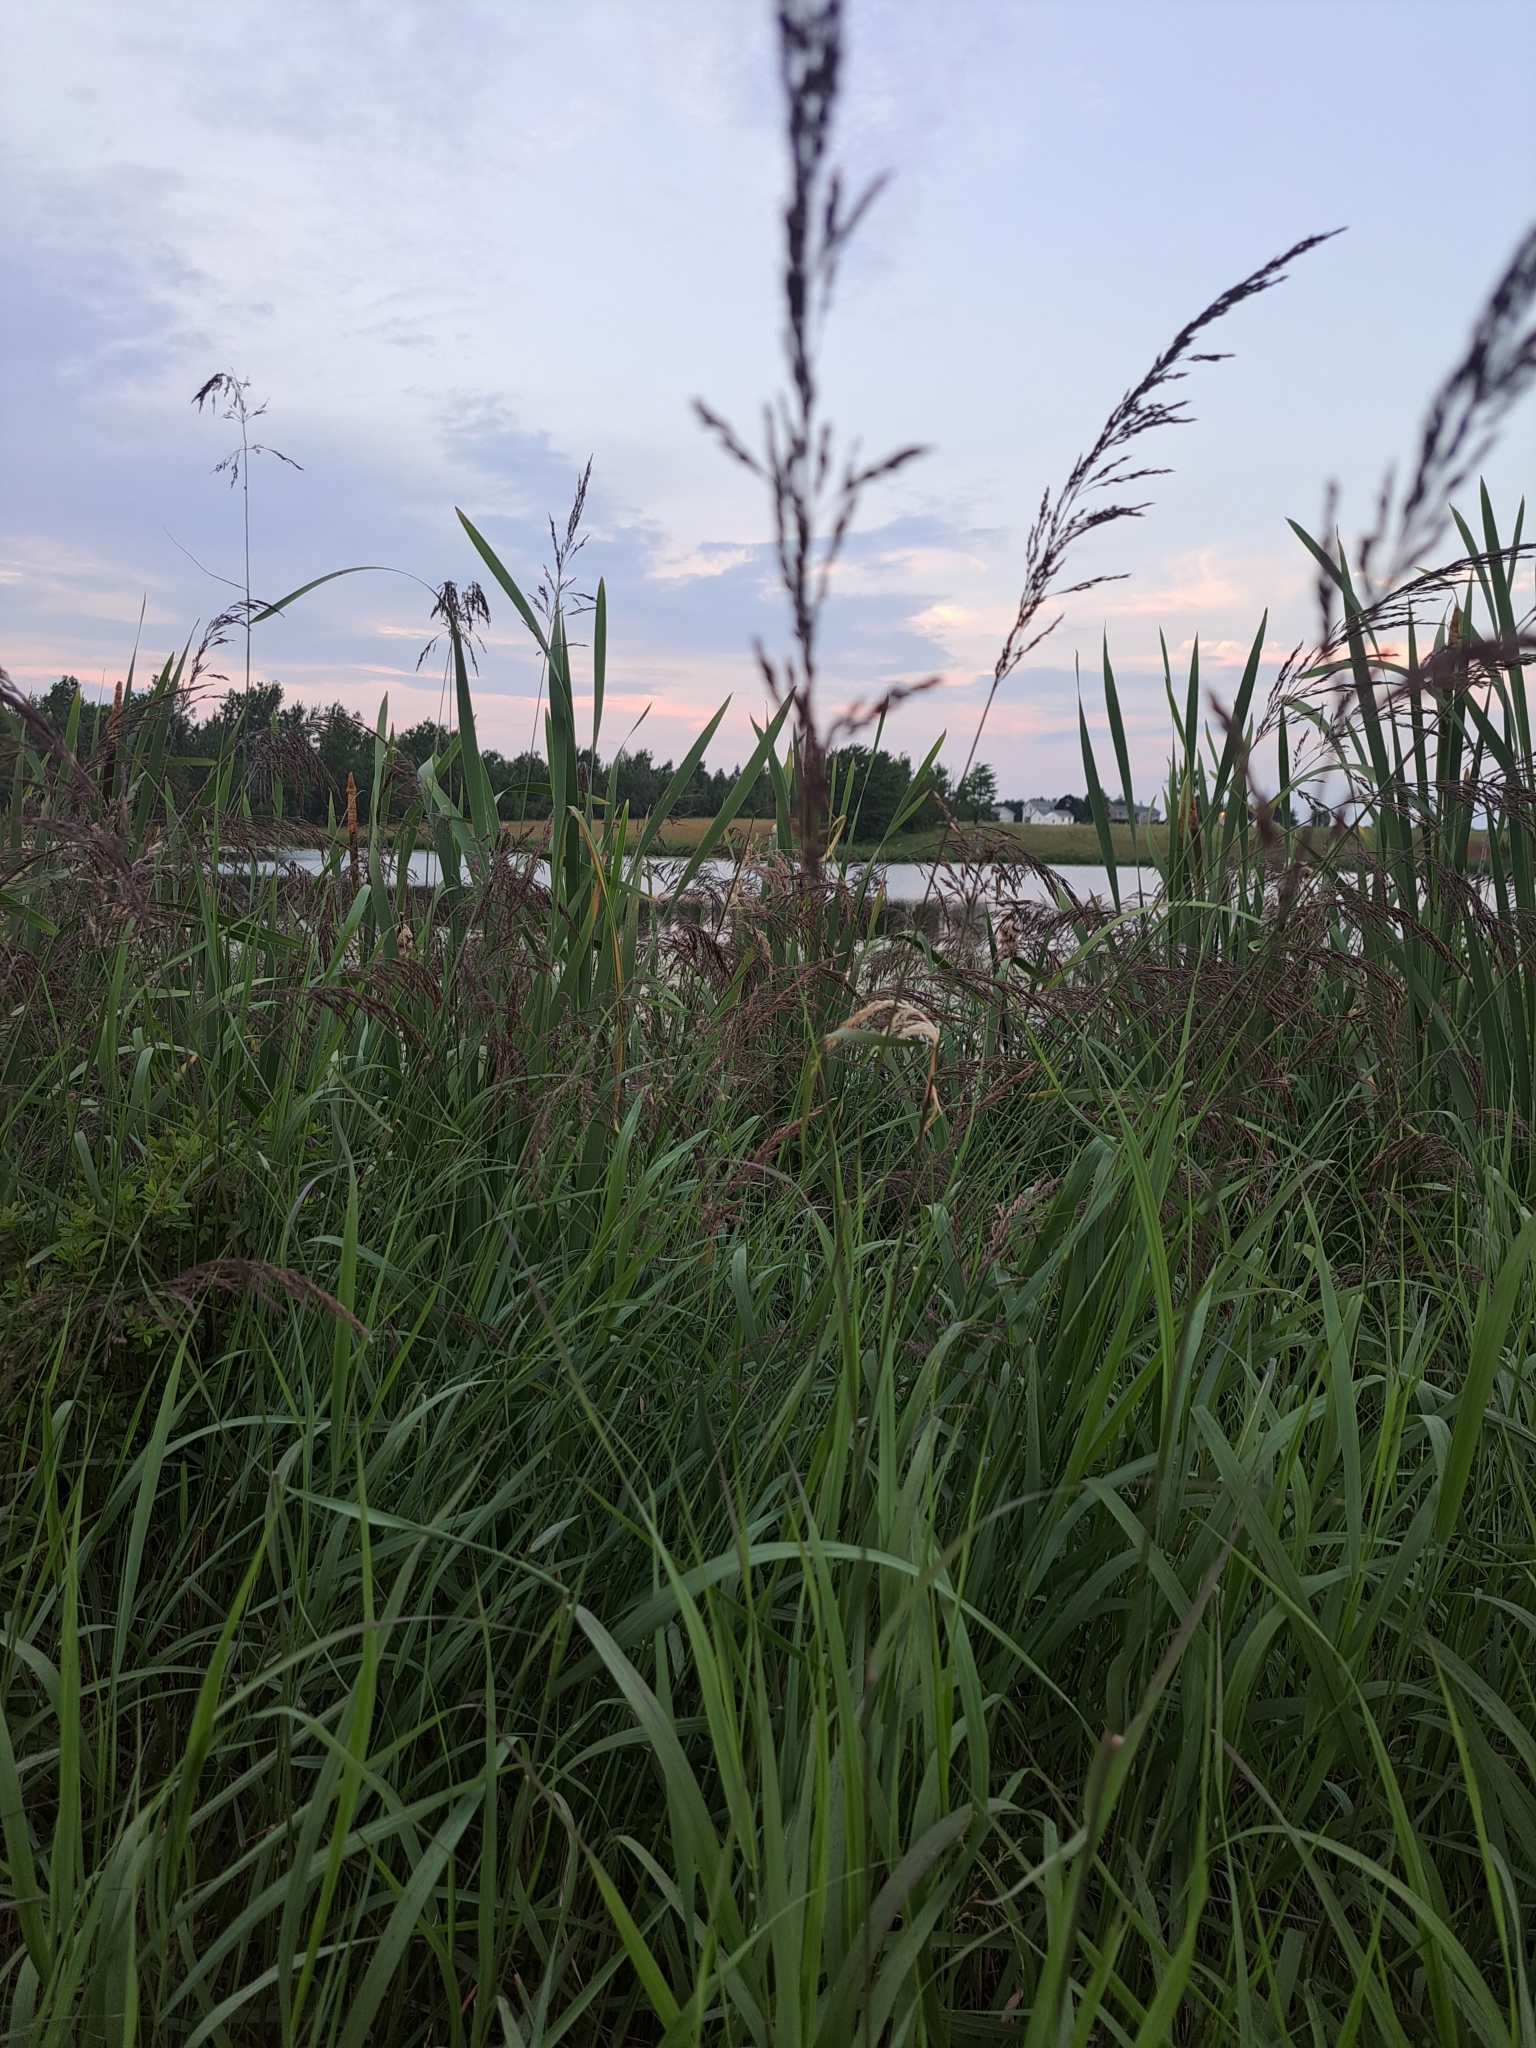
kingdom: Plantae
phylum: Tracheophyta
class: Liliopsida
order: Poales
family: Poaceae
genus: Calamagrostis
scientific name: Calamagrostis canadensis
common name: Canada bluejoint
